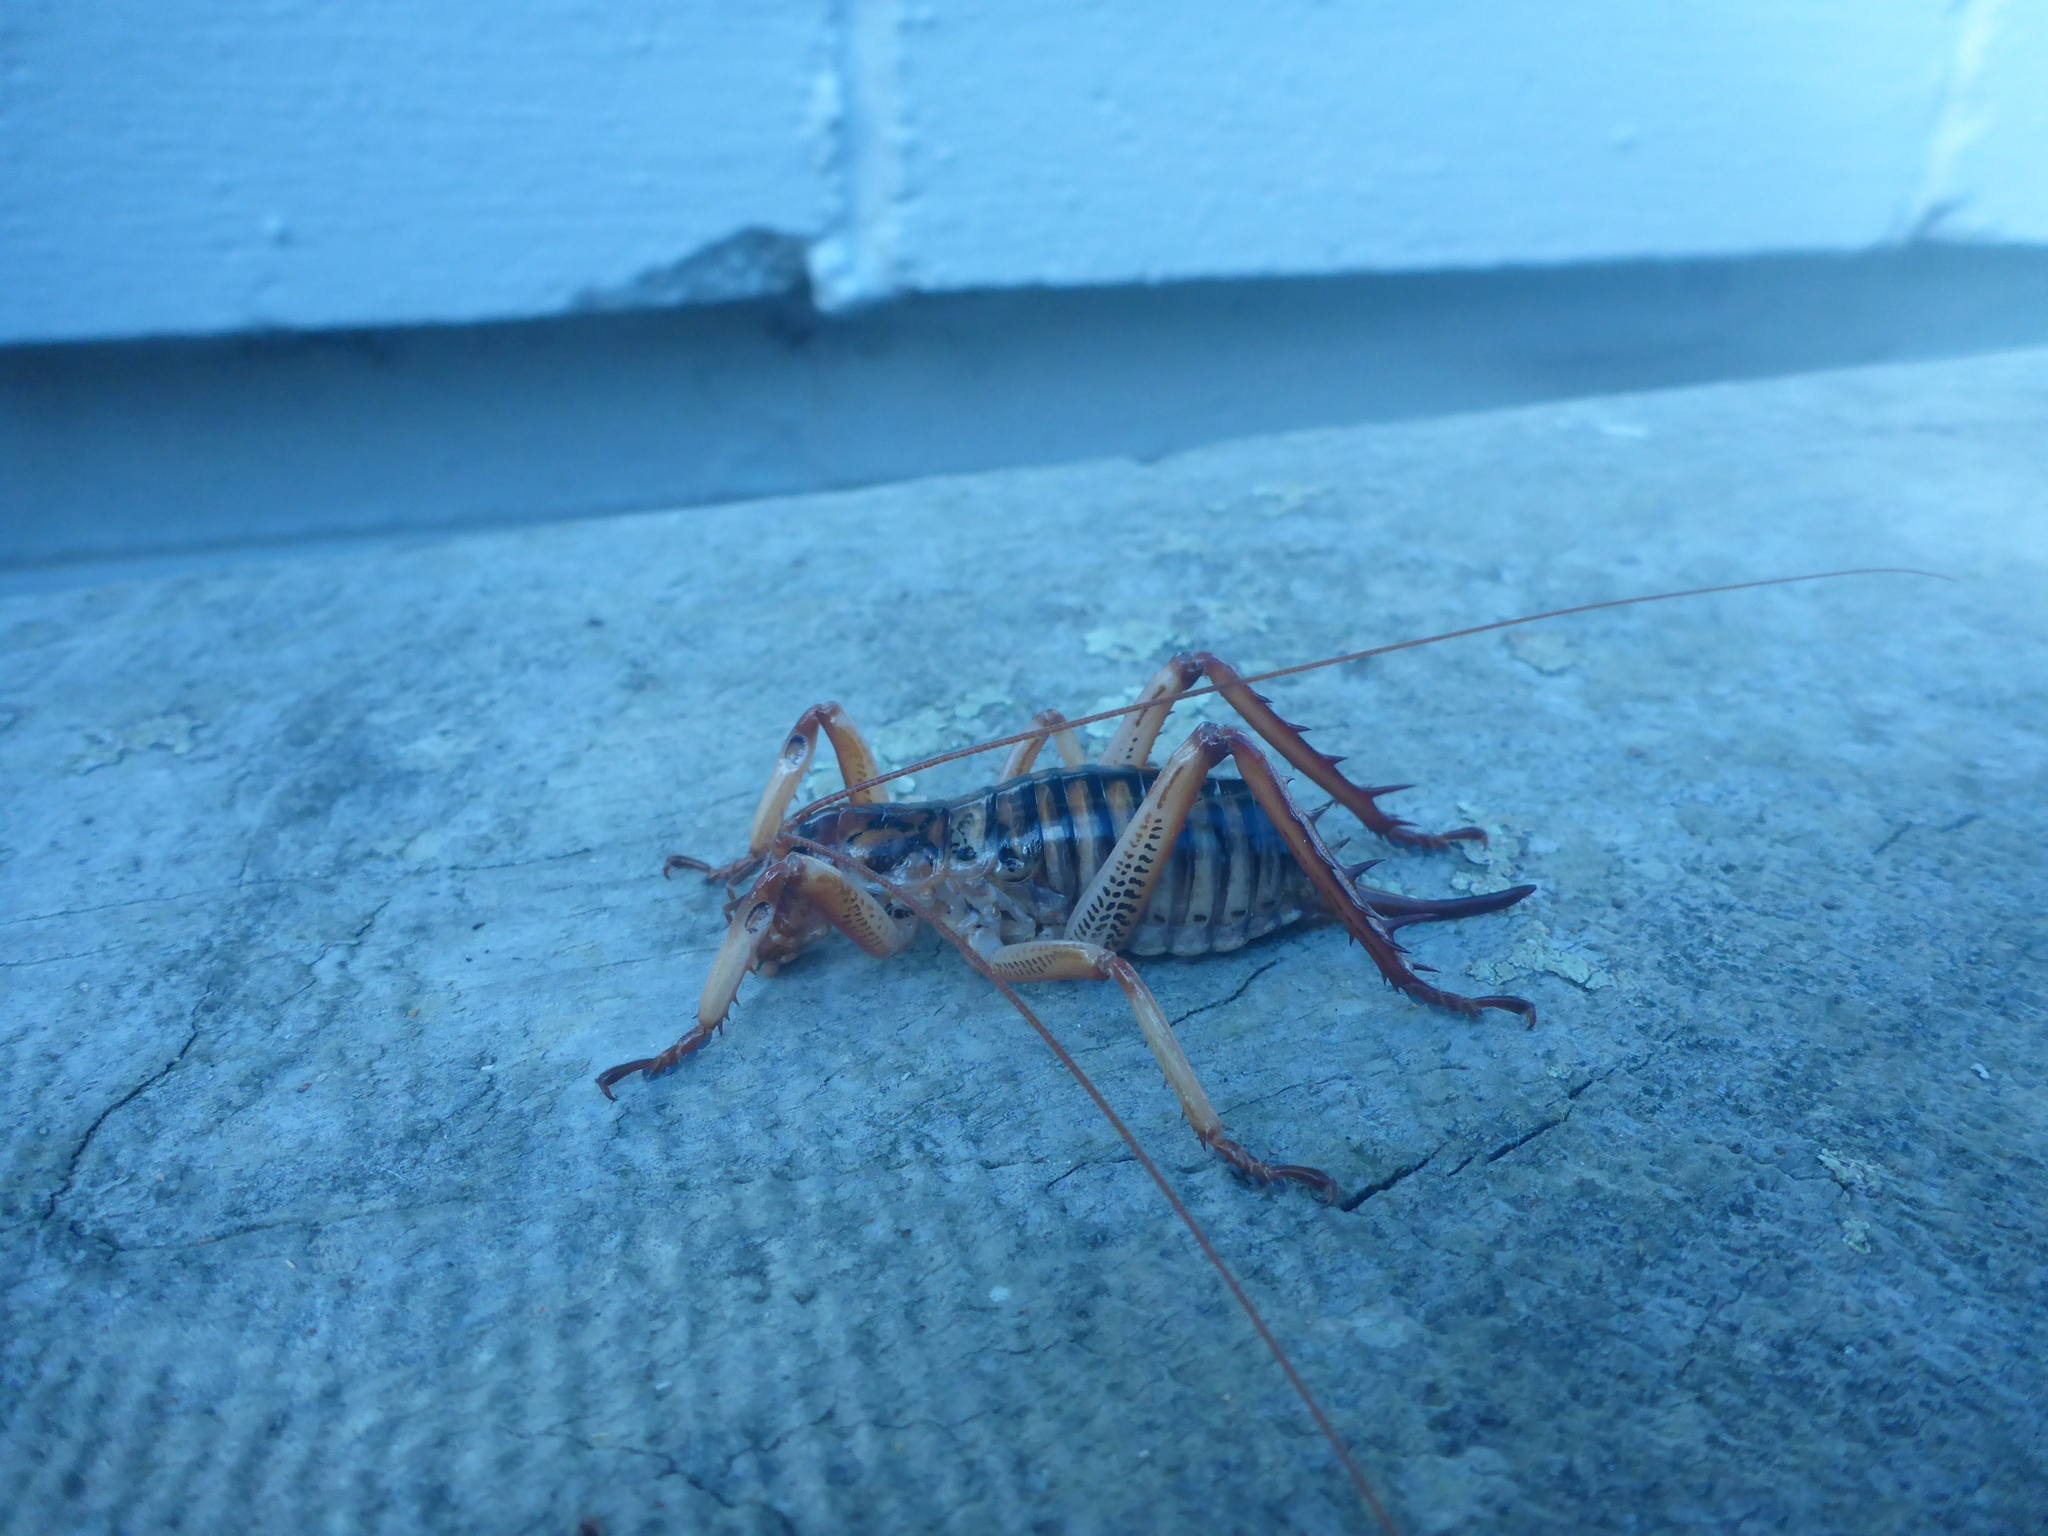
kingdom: Animalia
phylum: Arthropoda
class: Insecta
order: Orthoptera
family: Anostostomatidae
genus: Hemideina
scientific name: Hemideina crassidens
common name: Wellington tree weta
